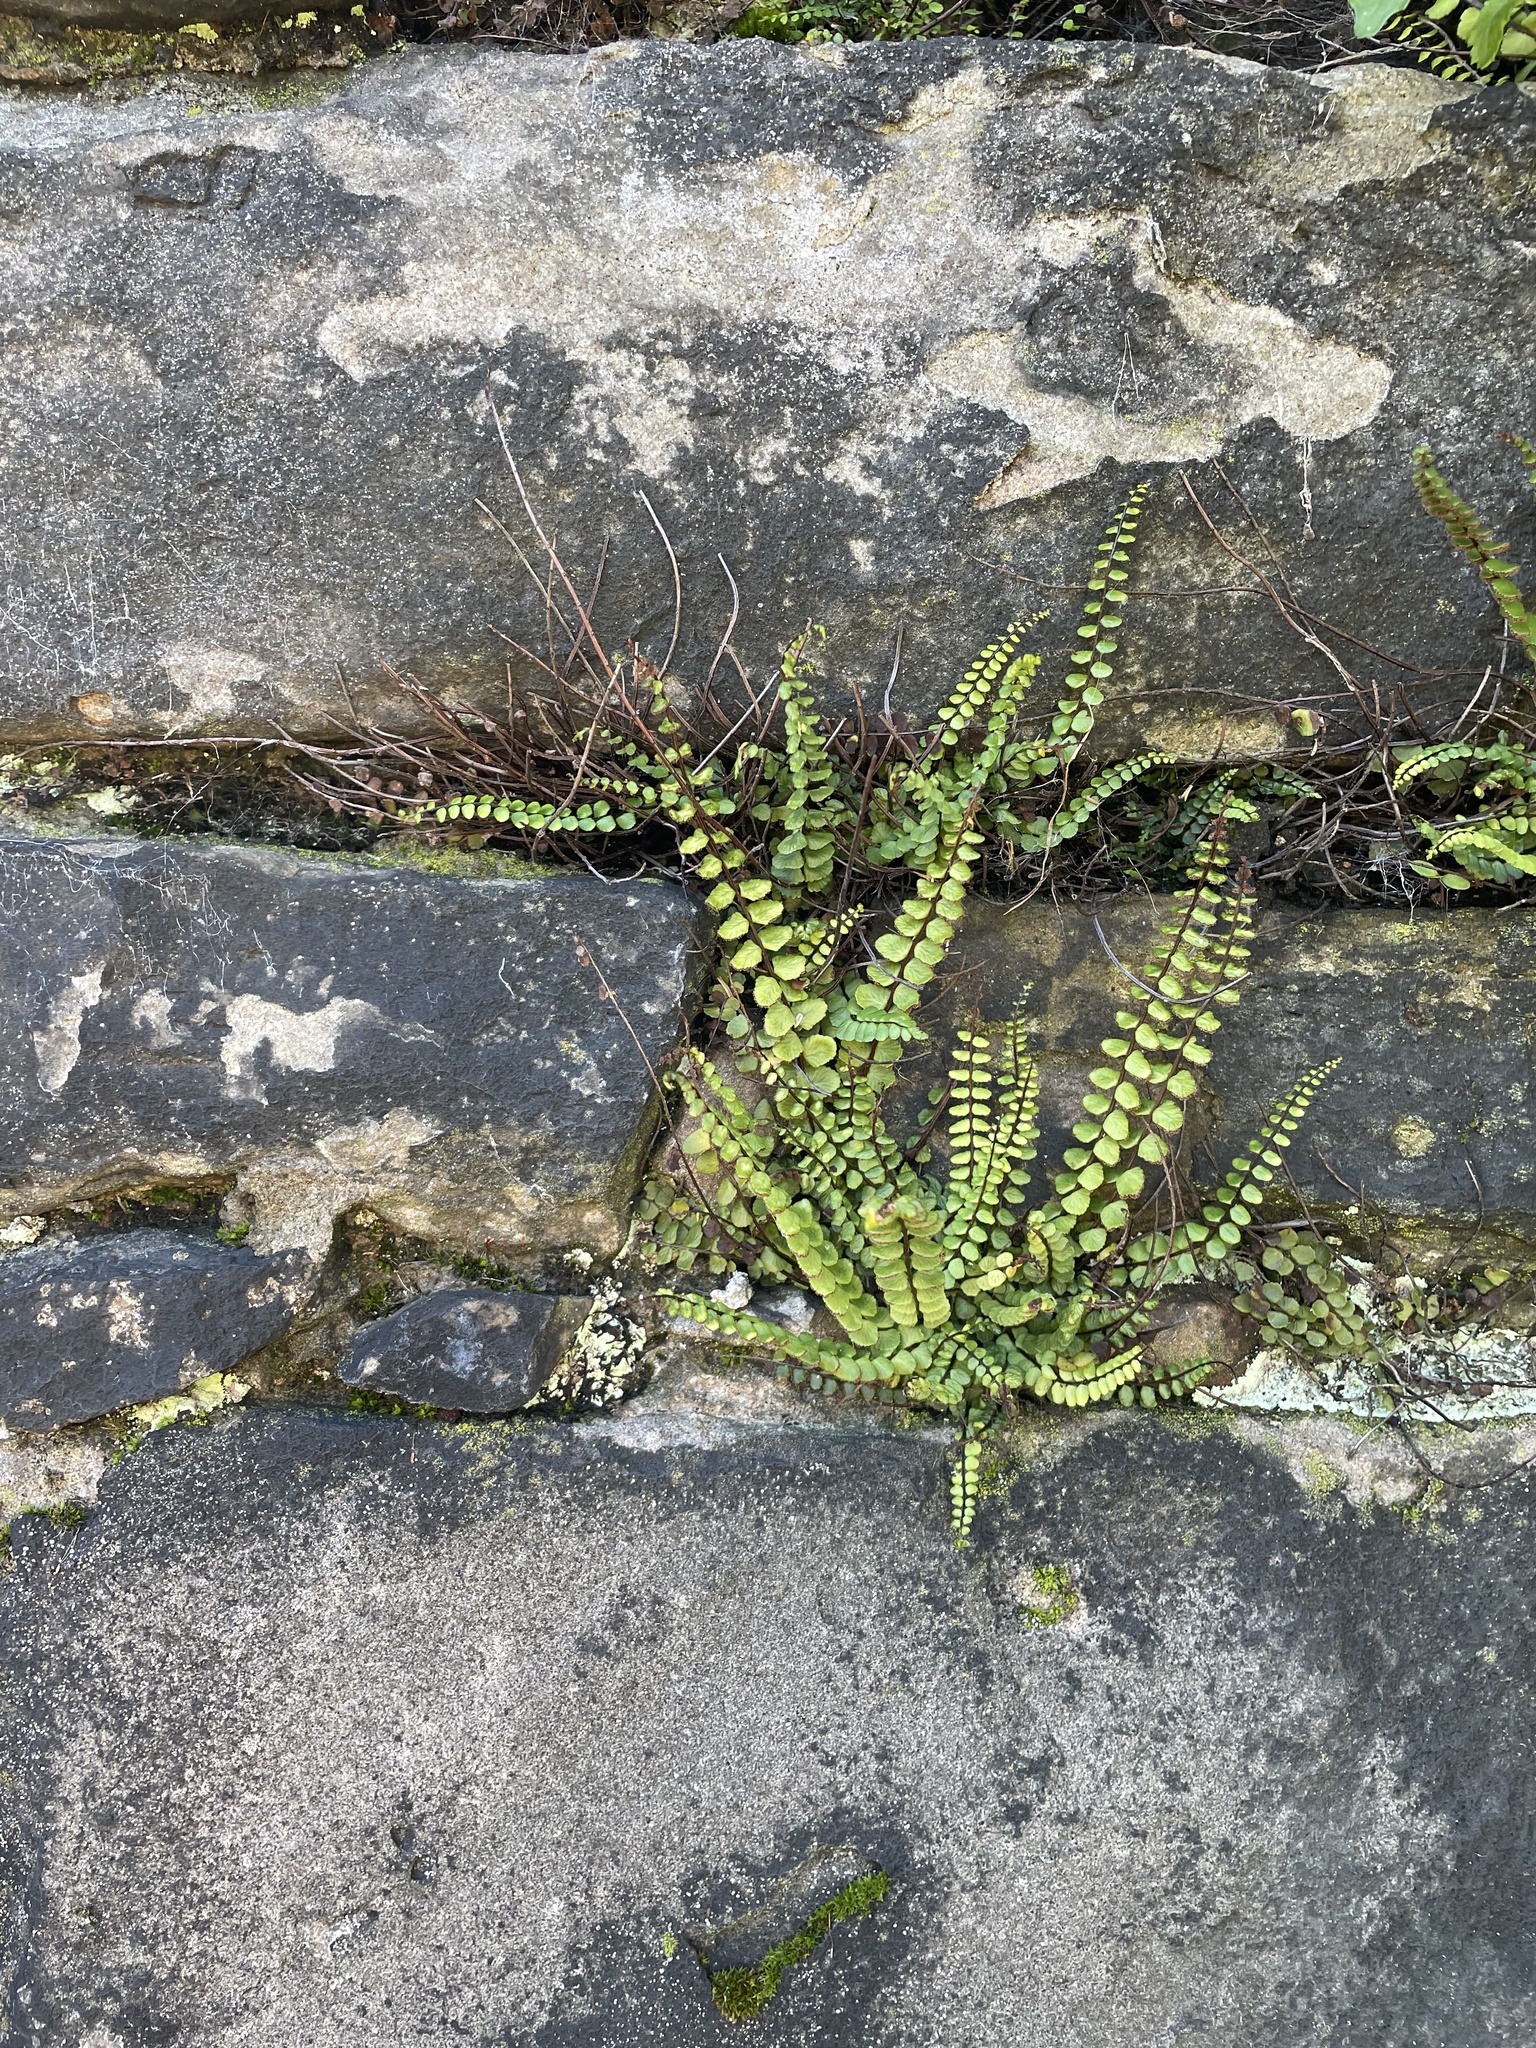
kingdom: Plantae
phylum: Tracheophyta
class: Polypodiopsida
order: Polypodiales
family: Aspleniaceae
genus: Asplenium
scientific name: Asplenium trichomanes
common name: Maidenhair spleenwort
